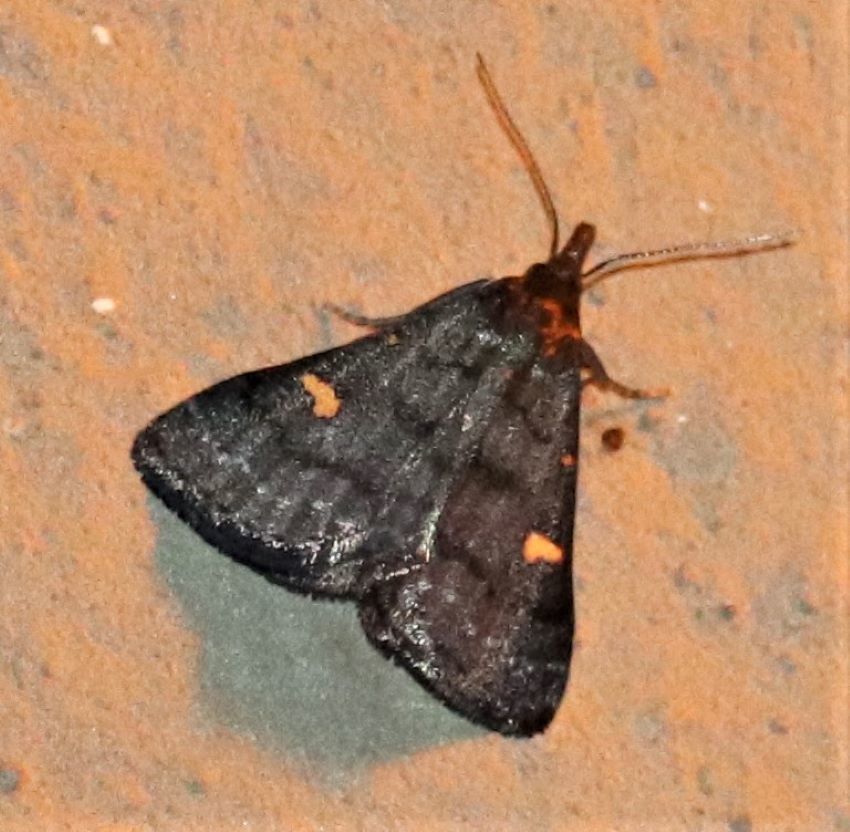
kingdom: Animalia
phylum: Arthropoda
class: Insecta
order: Lepidoptera
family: Erebidae
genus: Naarda
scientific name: Naarda flavisignata
